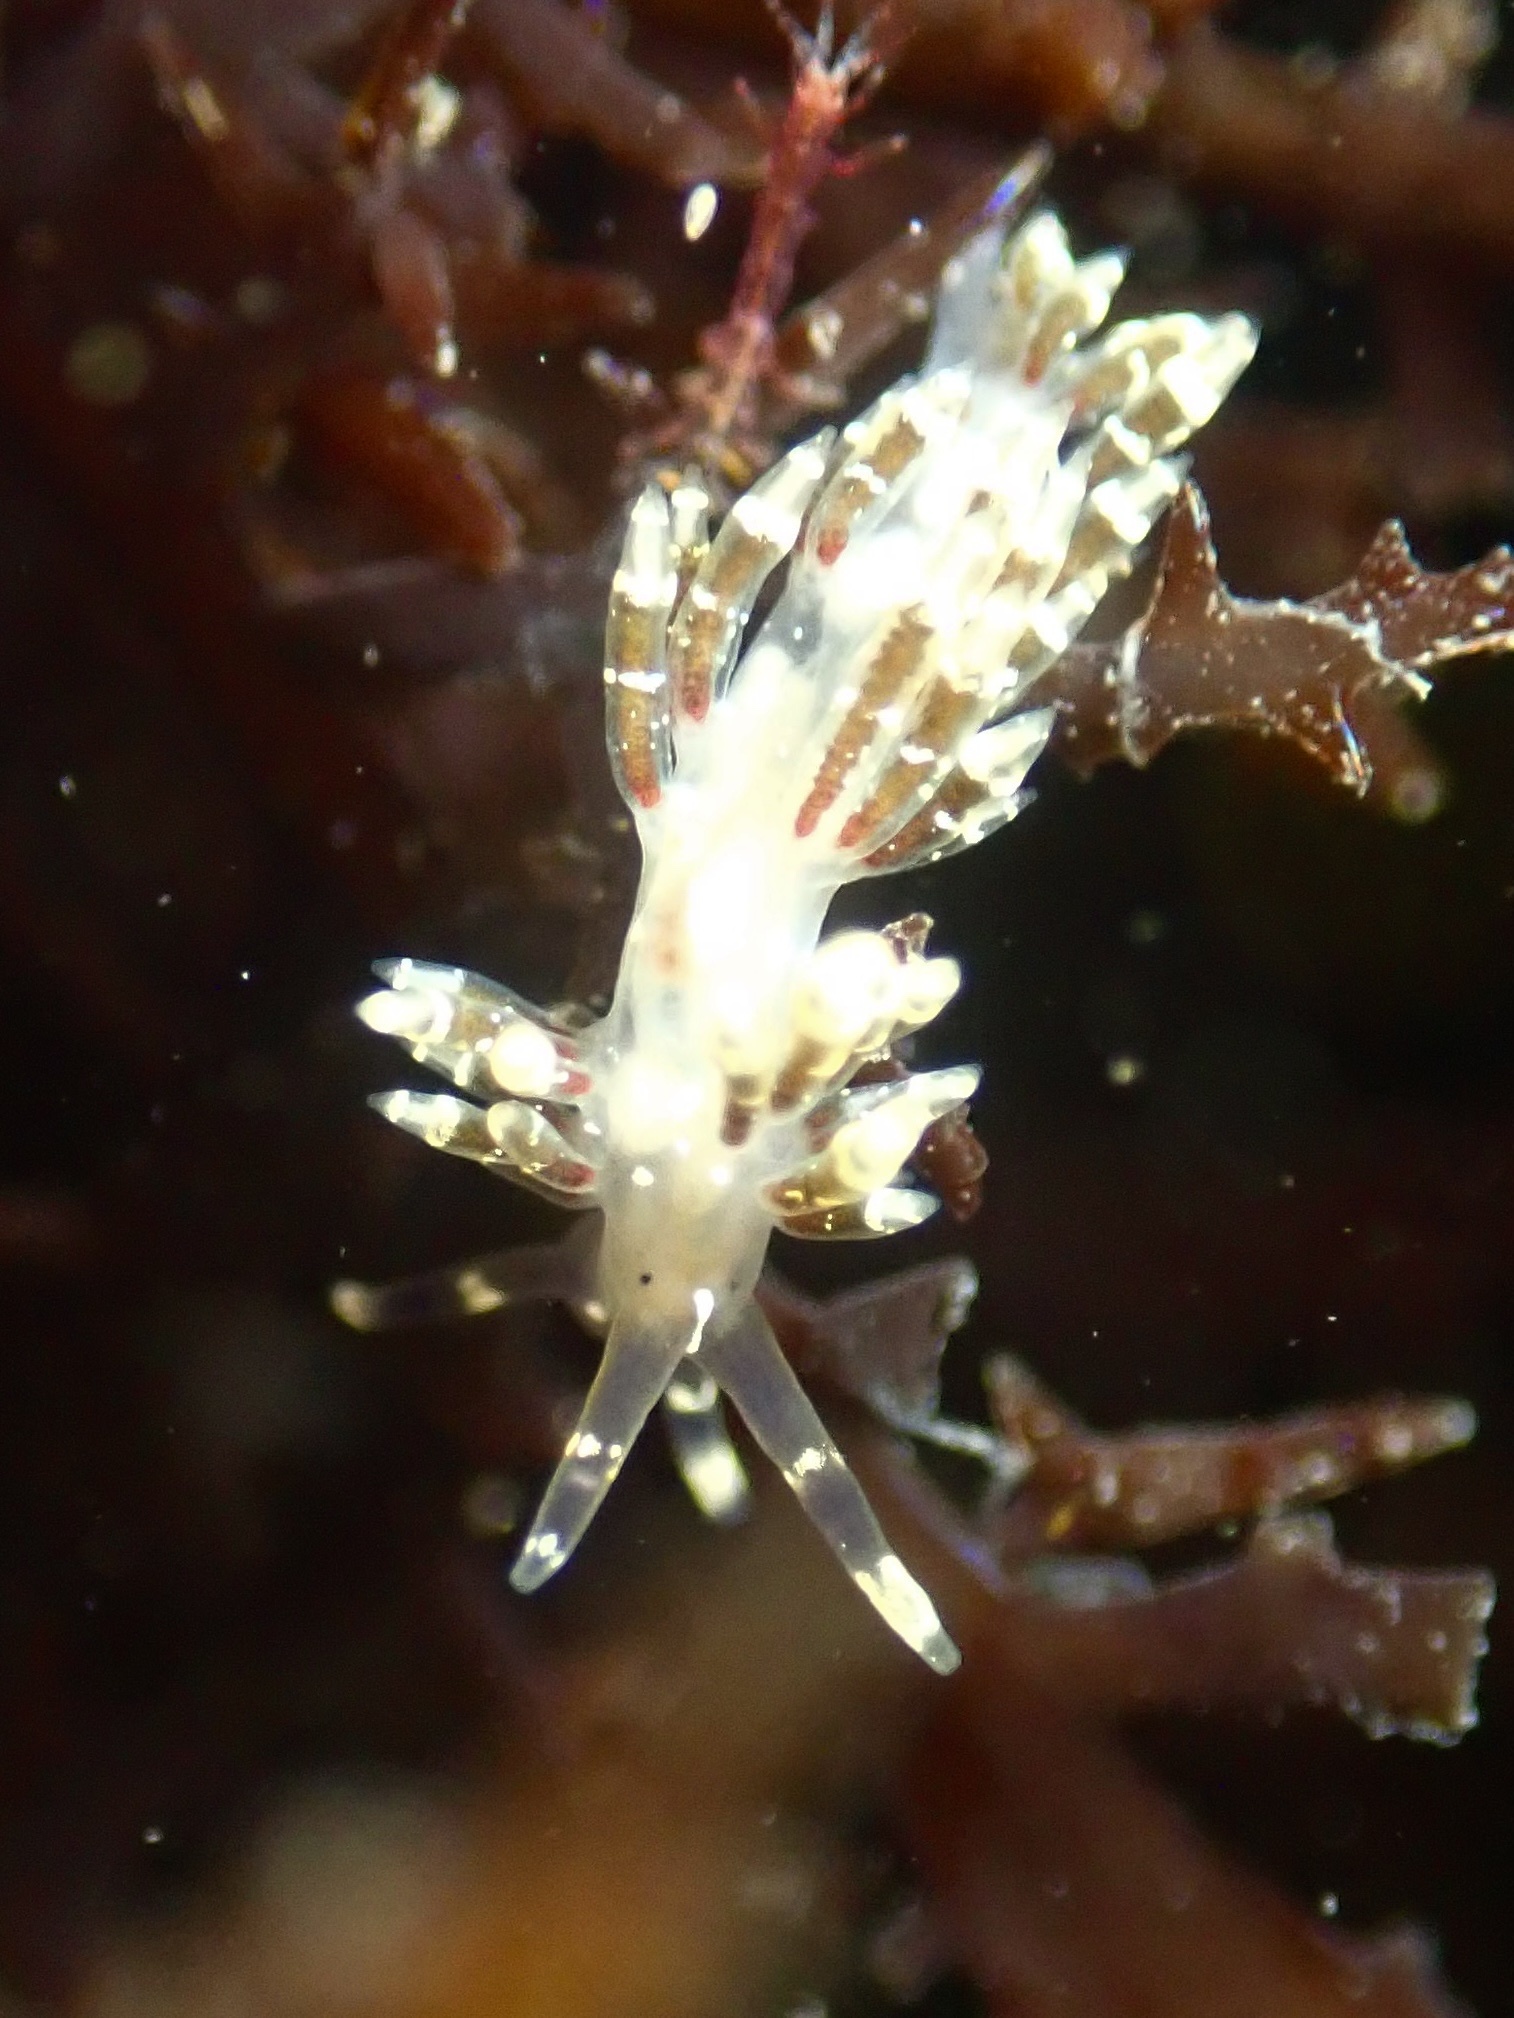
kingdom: Animalia
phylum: Mollusca
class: Gastropoda
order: Nudibranchia
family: Abronicidae
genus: Abronica
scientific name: Abronica abronia
